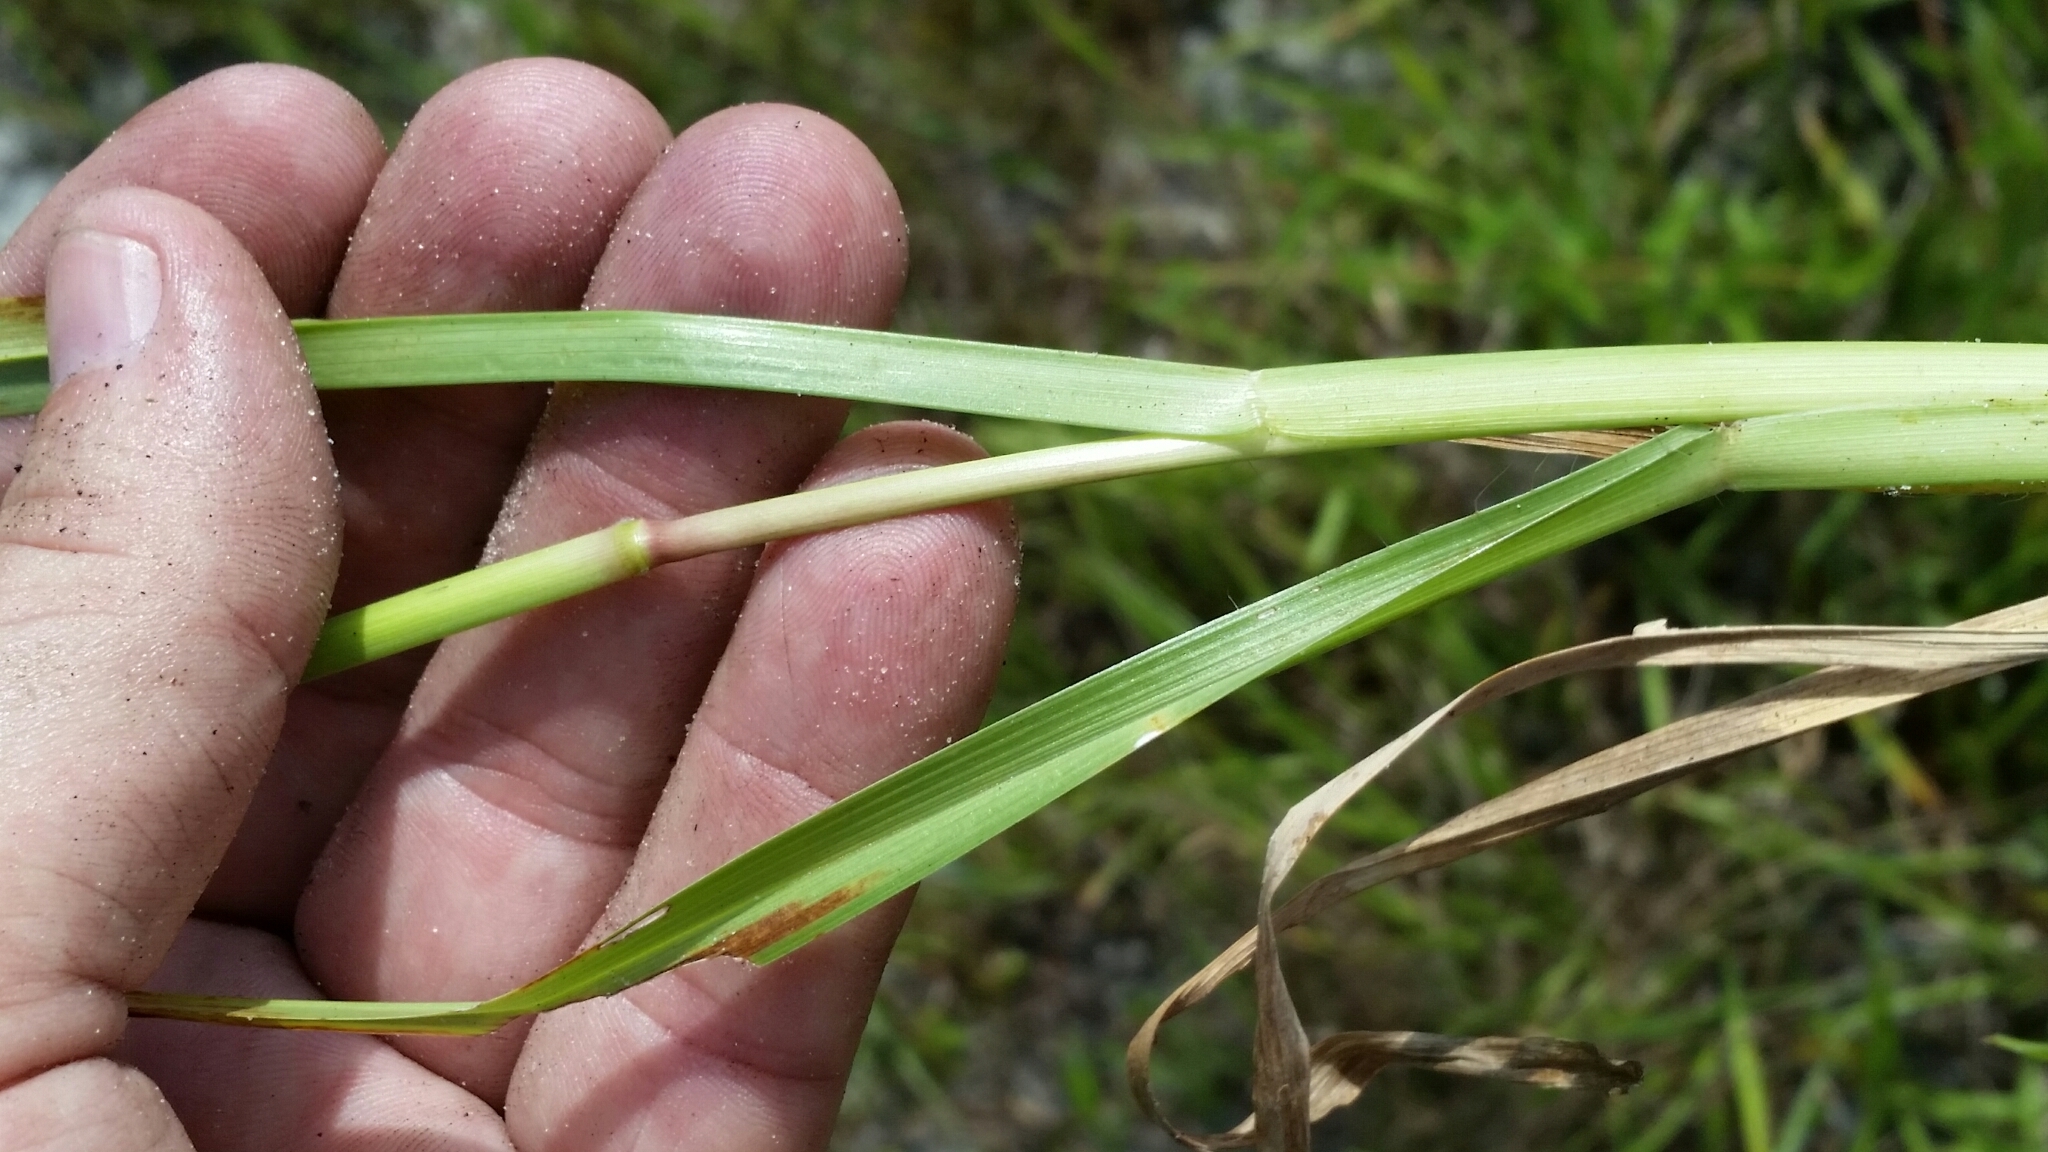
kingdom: Plantae
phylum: Tracheophyta
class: Liliopsida
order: Poales
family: Poaceae
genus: Axonopus
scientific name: Axonopus fissifolius
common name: Common carpetgrass
